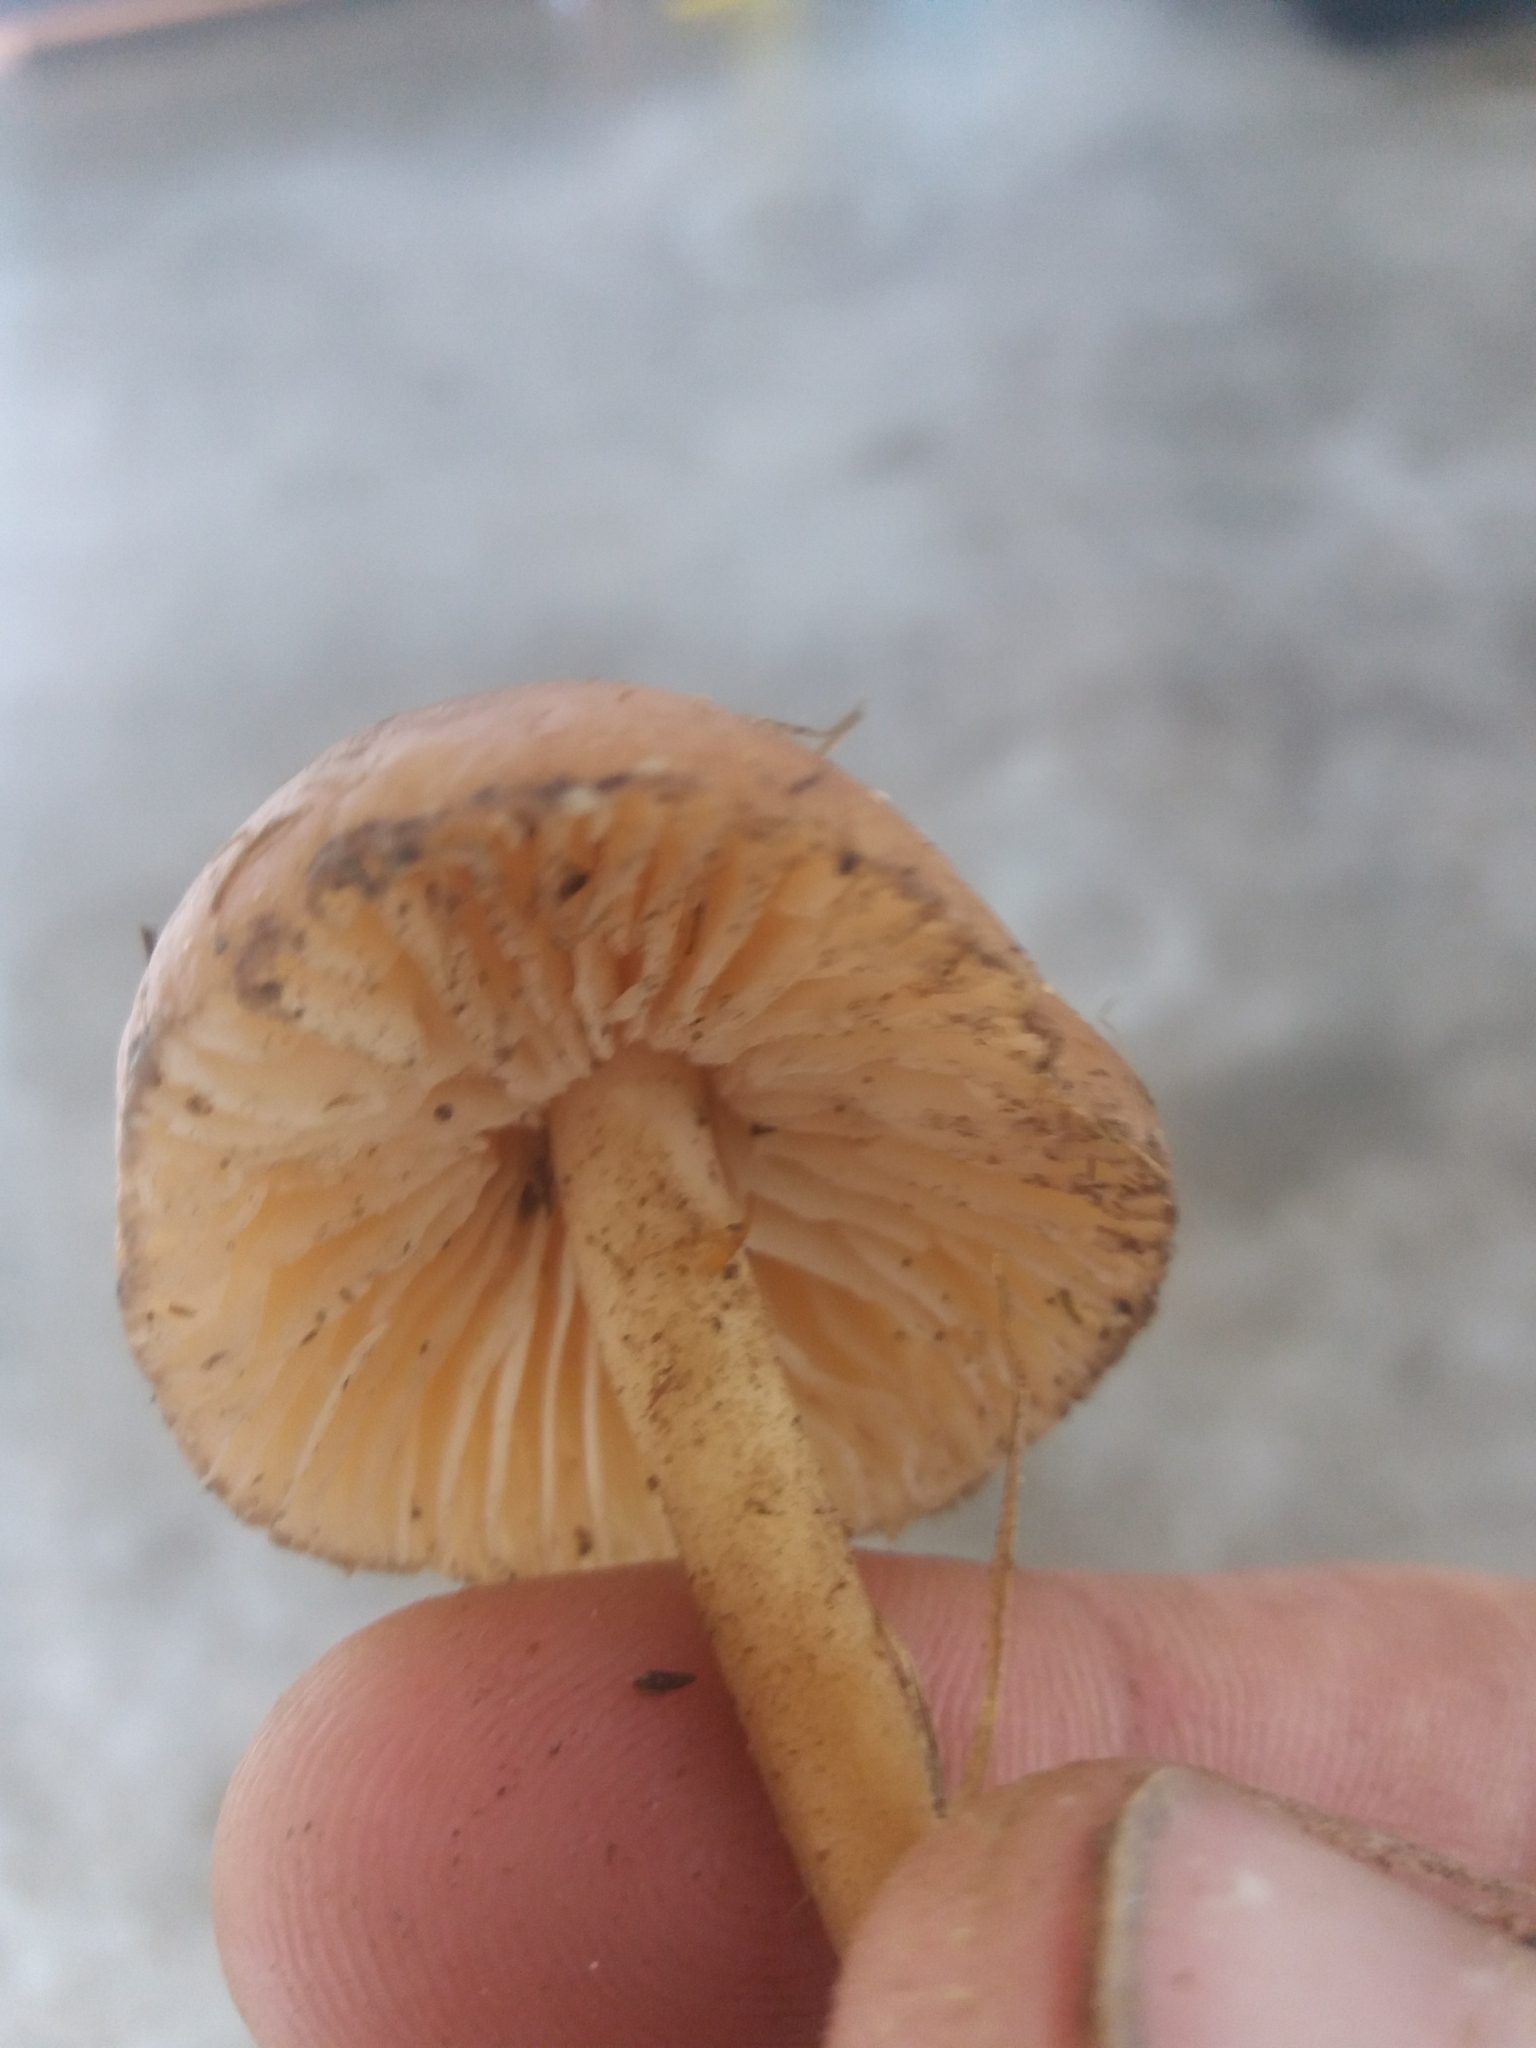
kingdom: Fungi
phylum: Basidiomycota
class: Agaricomycetes
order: Agaricales
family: Marasmiaceae
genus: Marasmius
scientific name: Marasmius oreades
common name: Fairy ring champignon
